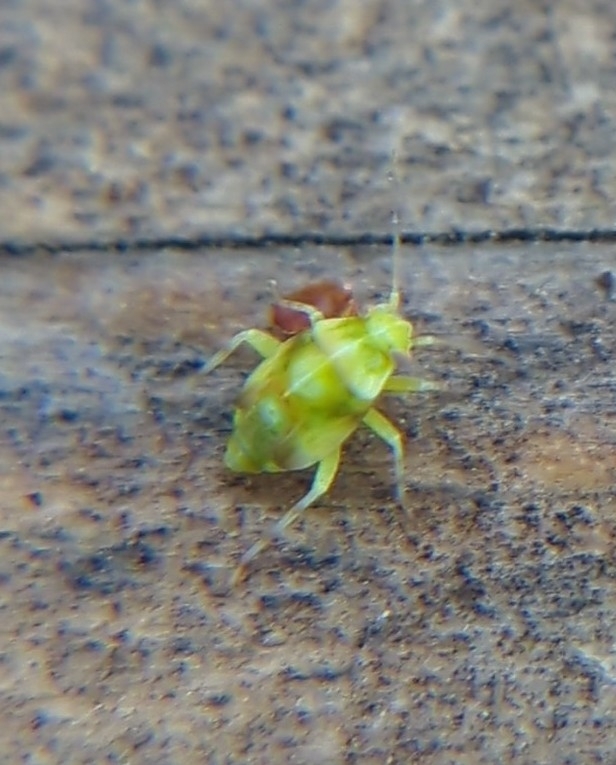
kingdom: Animalia
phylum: Arthropoda
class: Insecta
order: Hemiptera
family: Miridae
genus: Tropidosteptes
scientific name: Tropidosteptes quercicola
